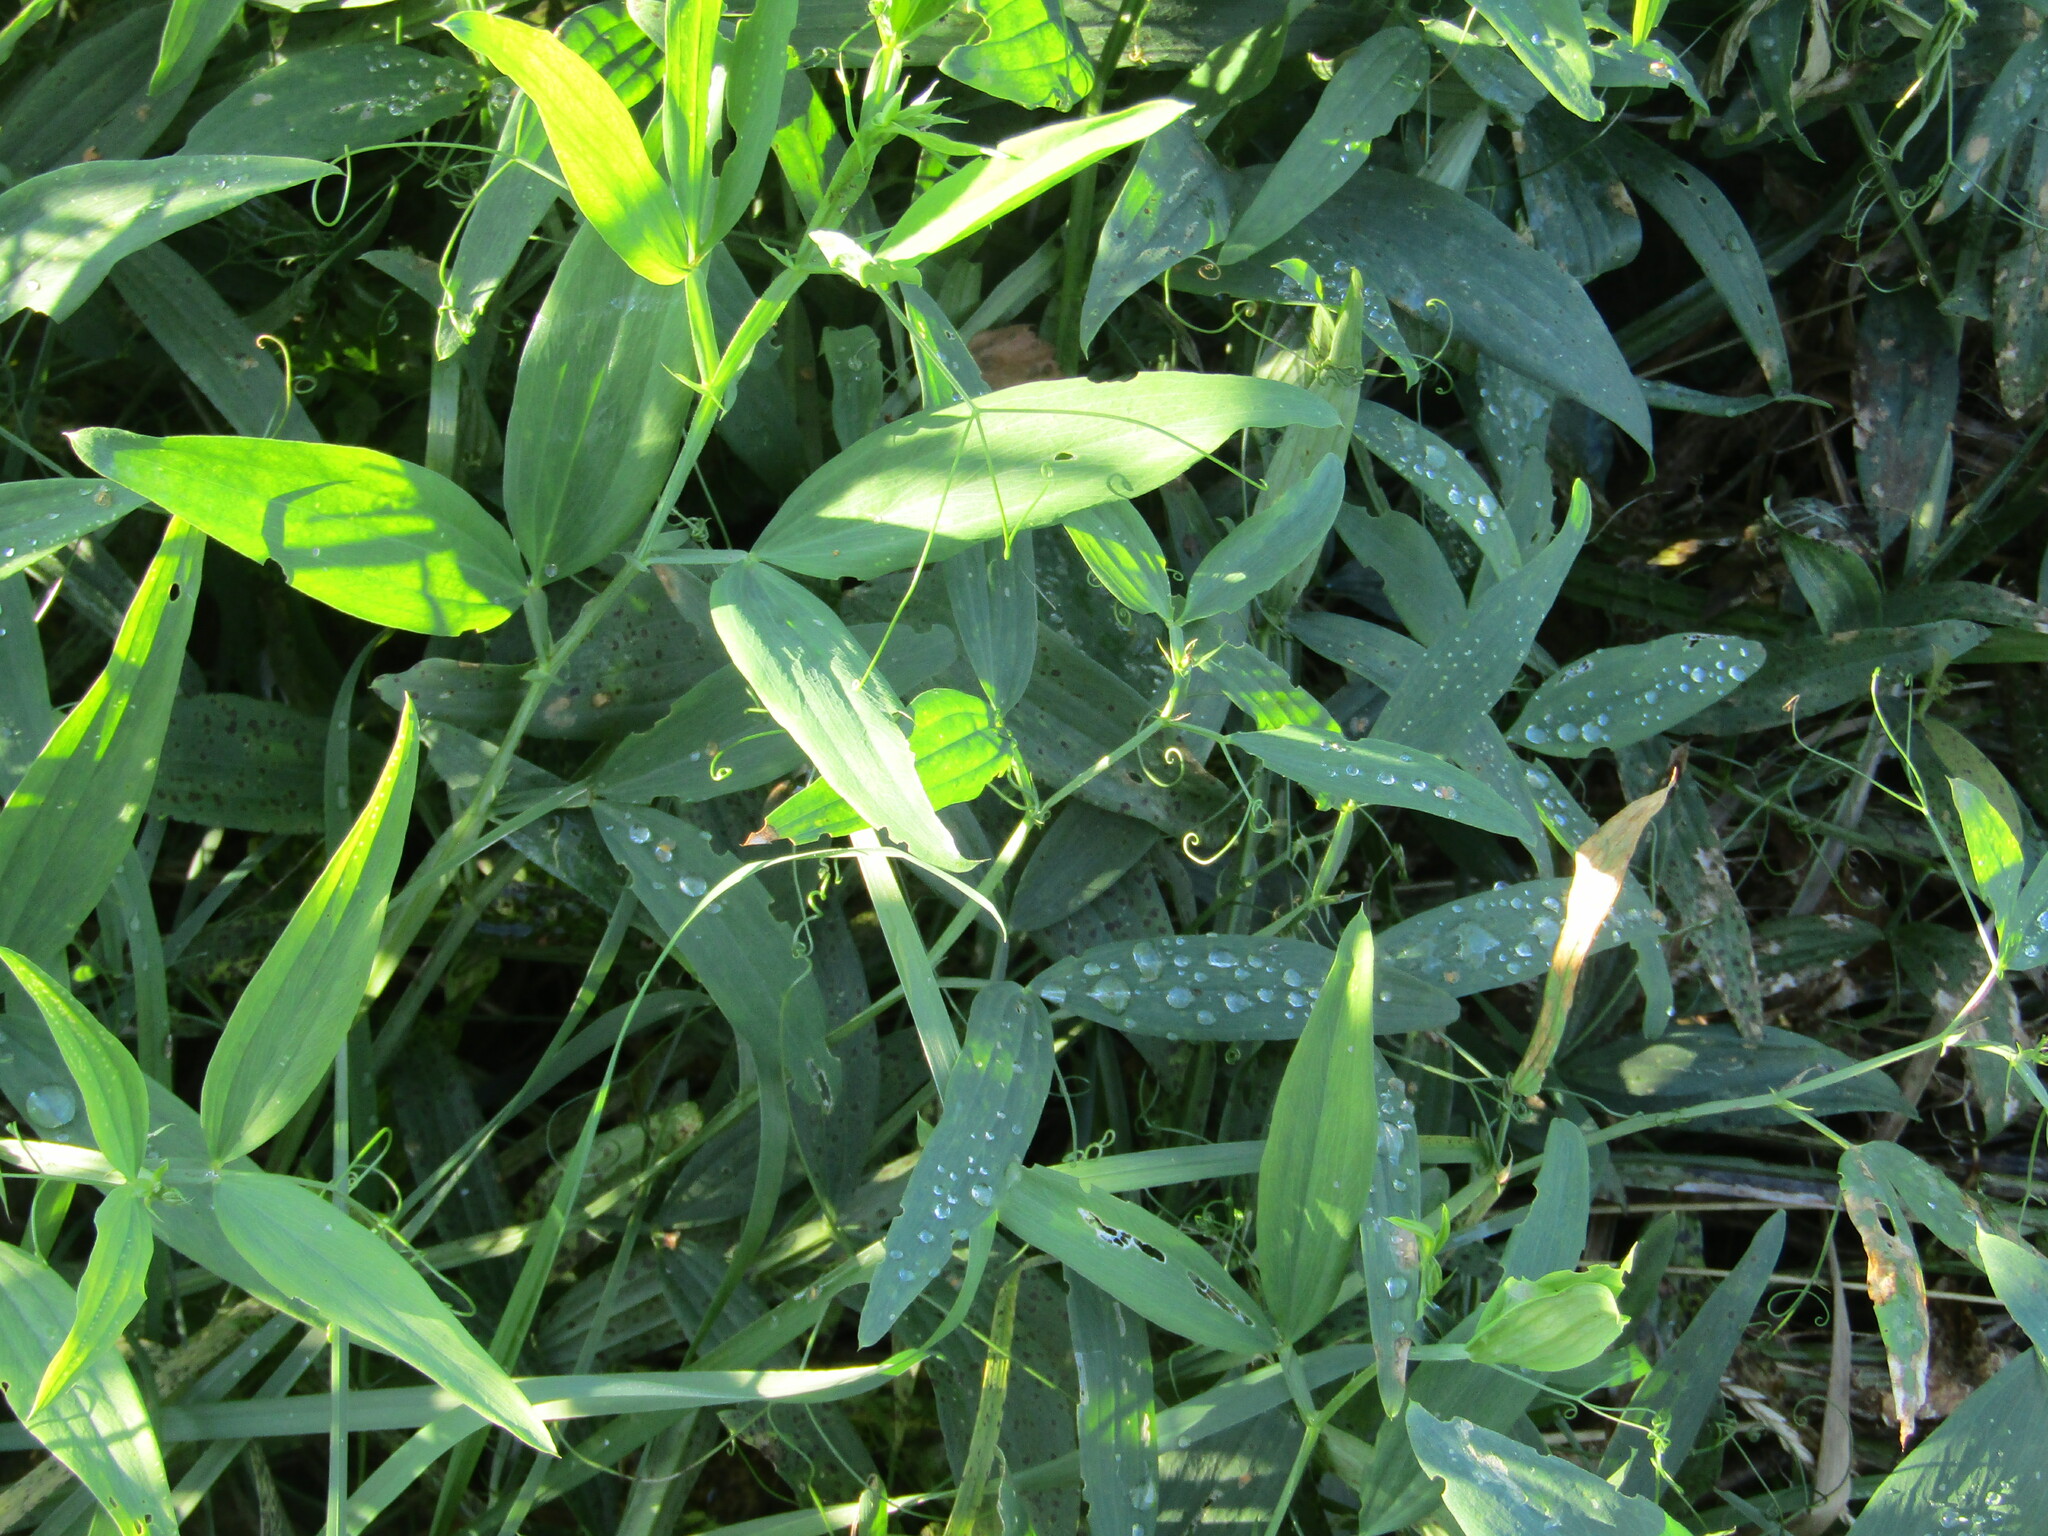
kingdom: Plantae
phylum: Tracheophyta
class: Magnoliopsida
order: Fabales
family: Fabaceae
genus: Lathyrus
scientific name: Lathyrus sylvestris
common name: Flat pea
